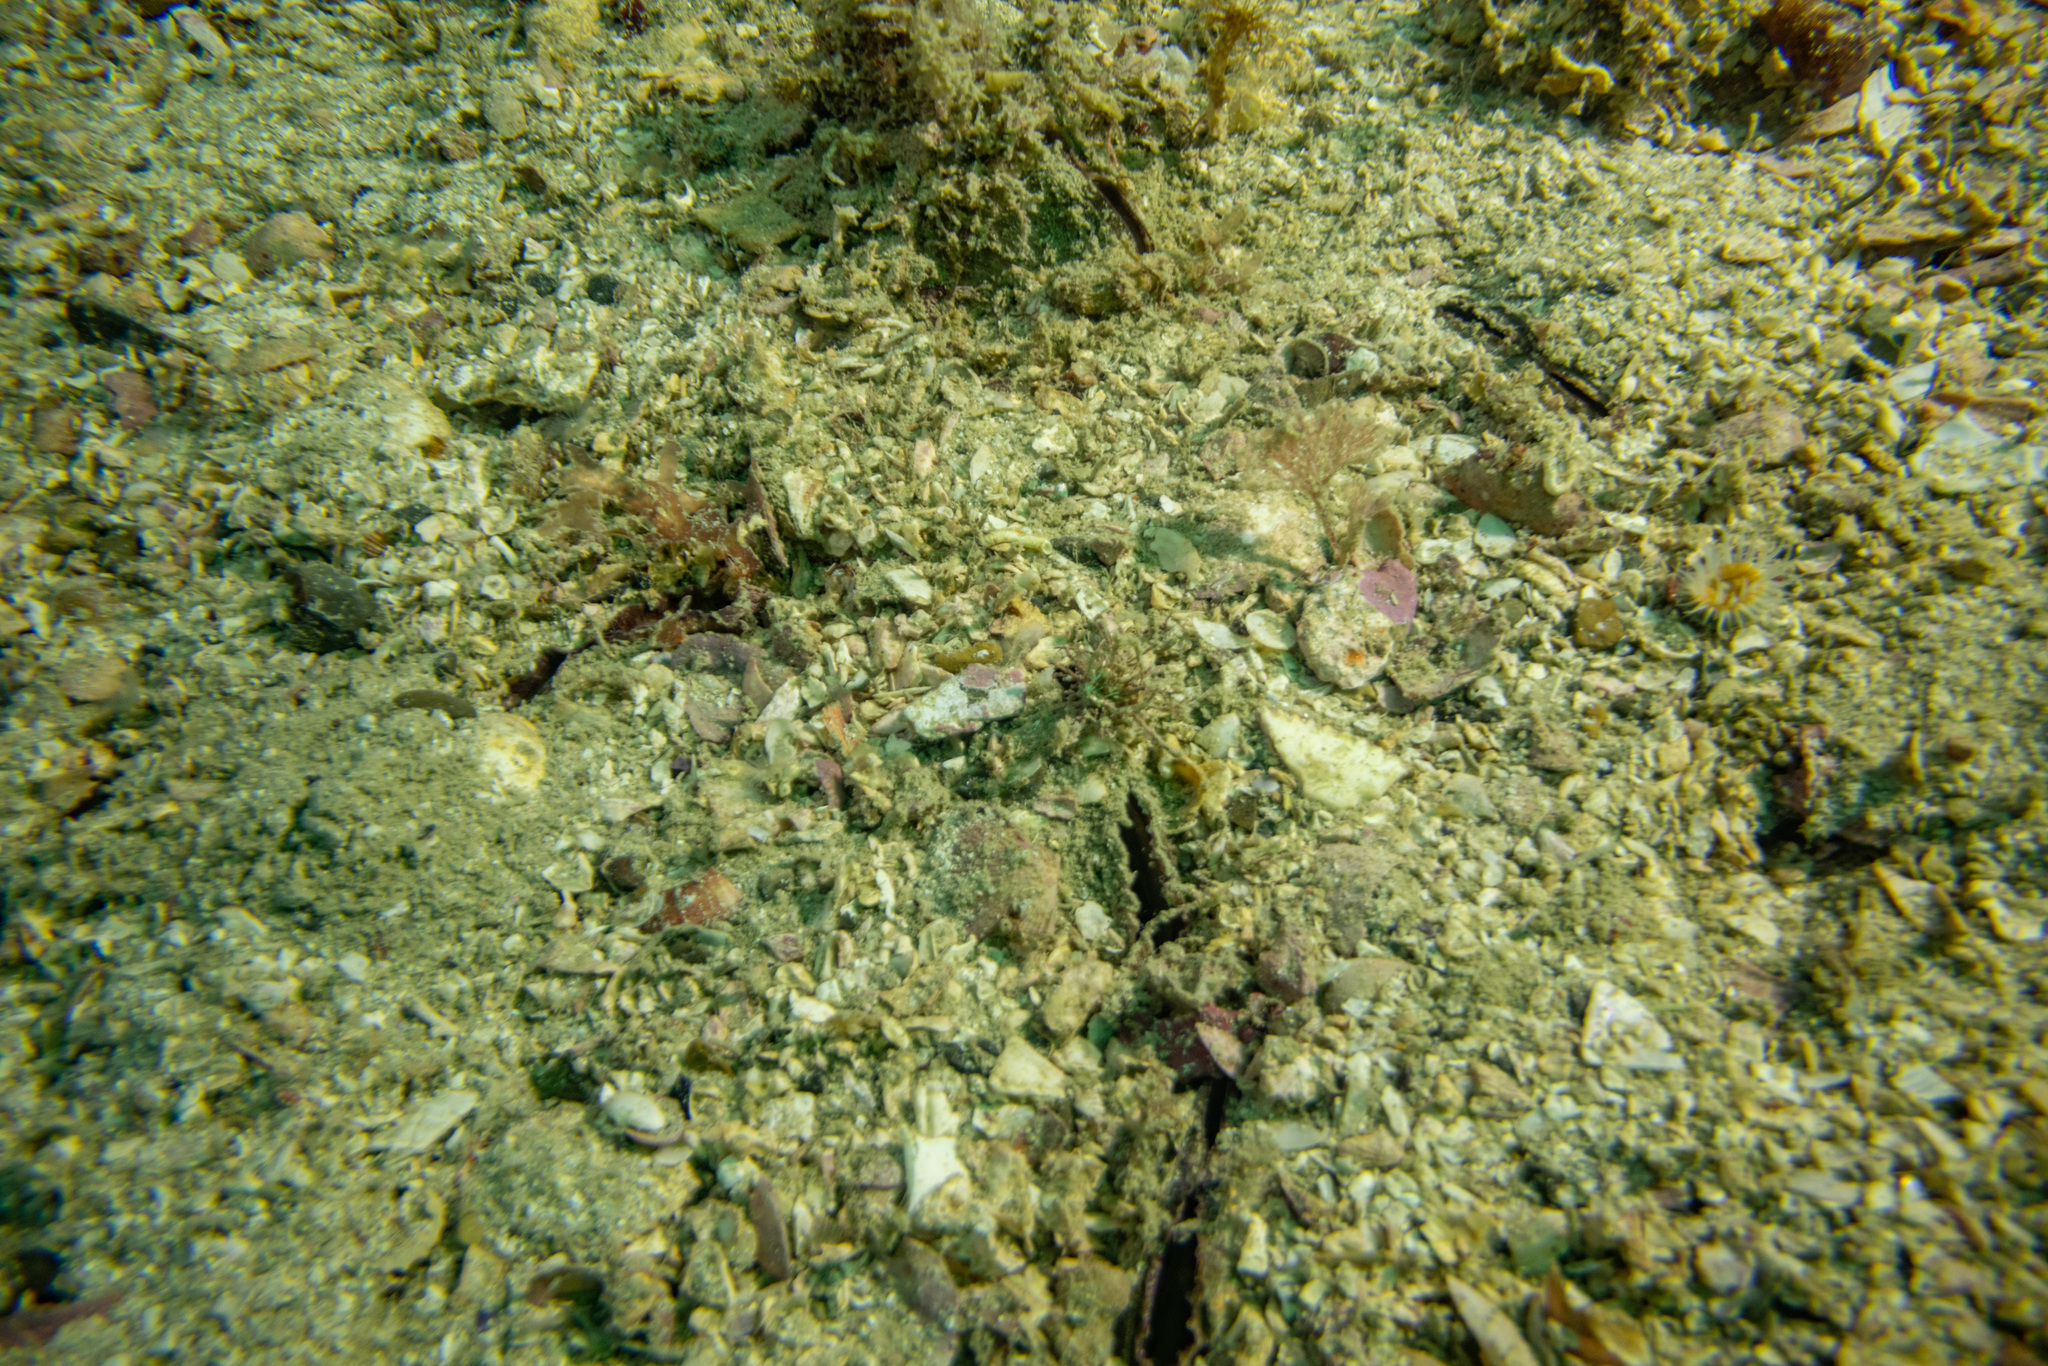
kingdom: Animalia
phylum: Mollusca
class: Bivalvia
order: Arcida
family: Glycymerididae
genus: Tucetona
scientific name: Tucetona laticostata
